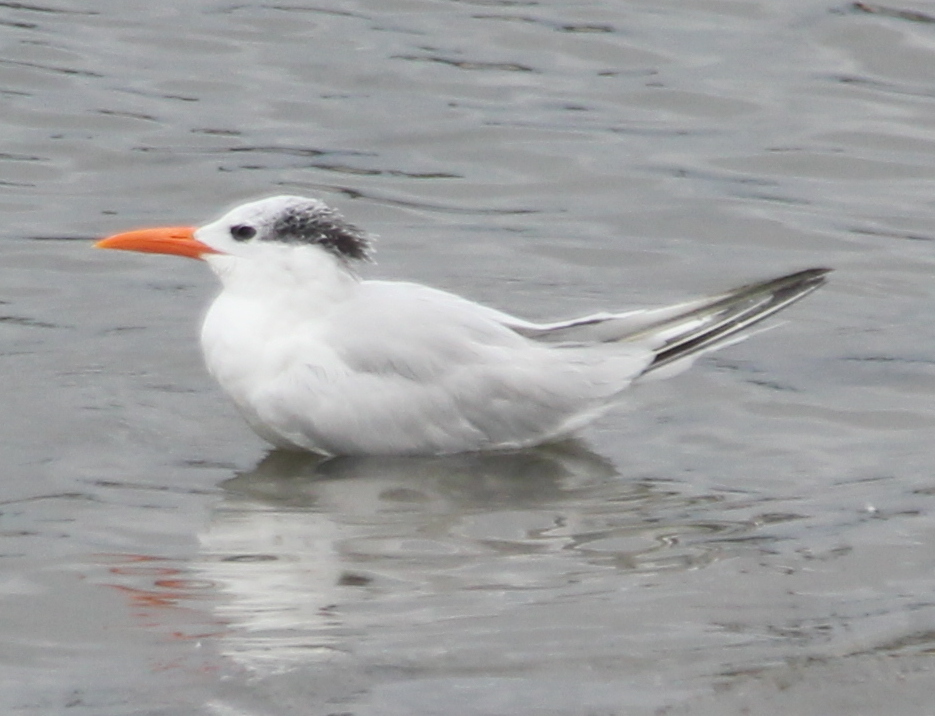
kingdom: Animalia
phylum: Chordata
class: Aves
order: Charadriiformes
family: Laridae
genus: Thalasseus
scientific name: Thalasseus maximus
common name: Royal tern
